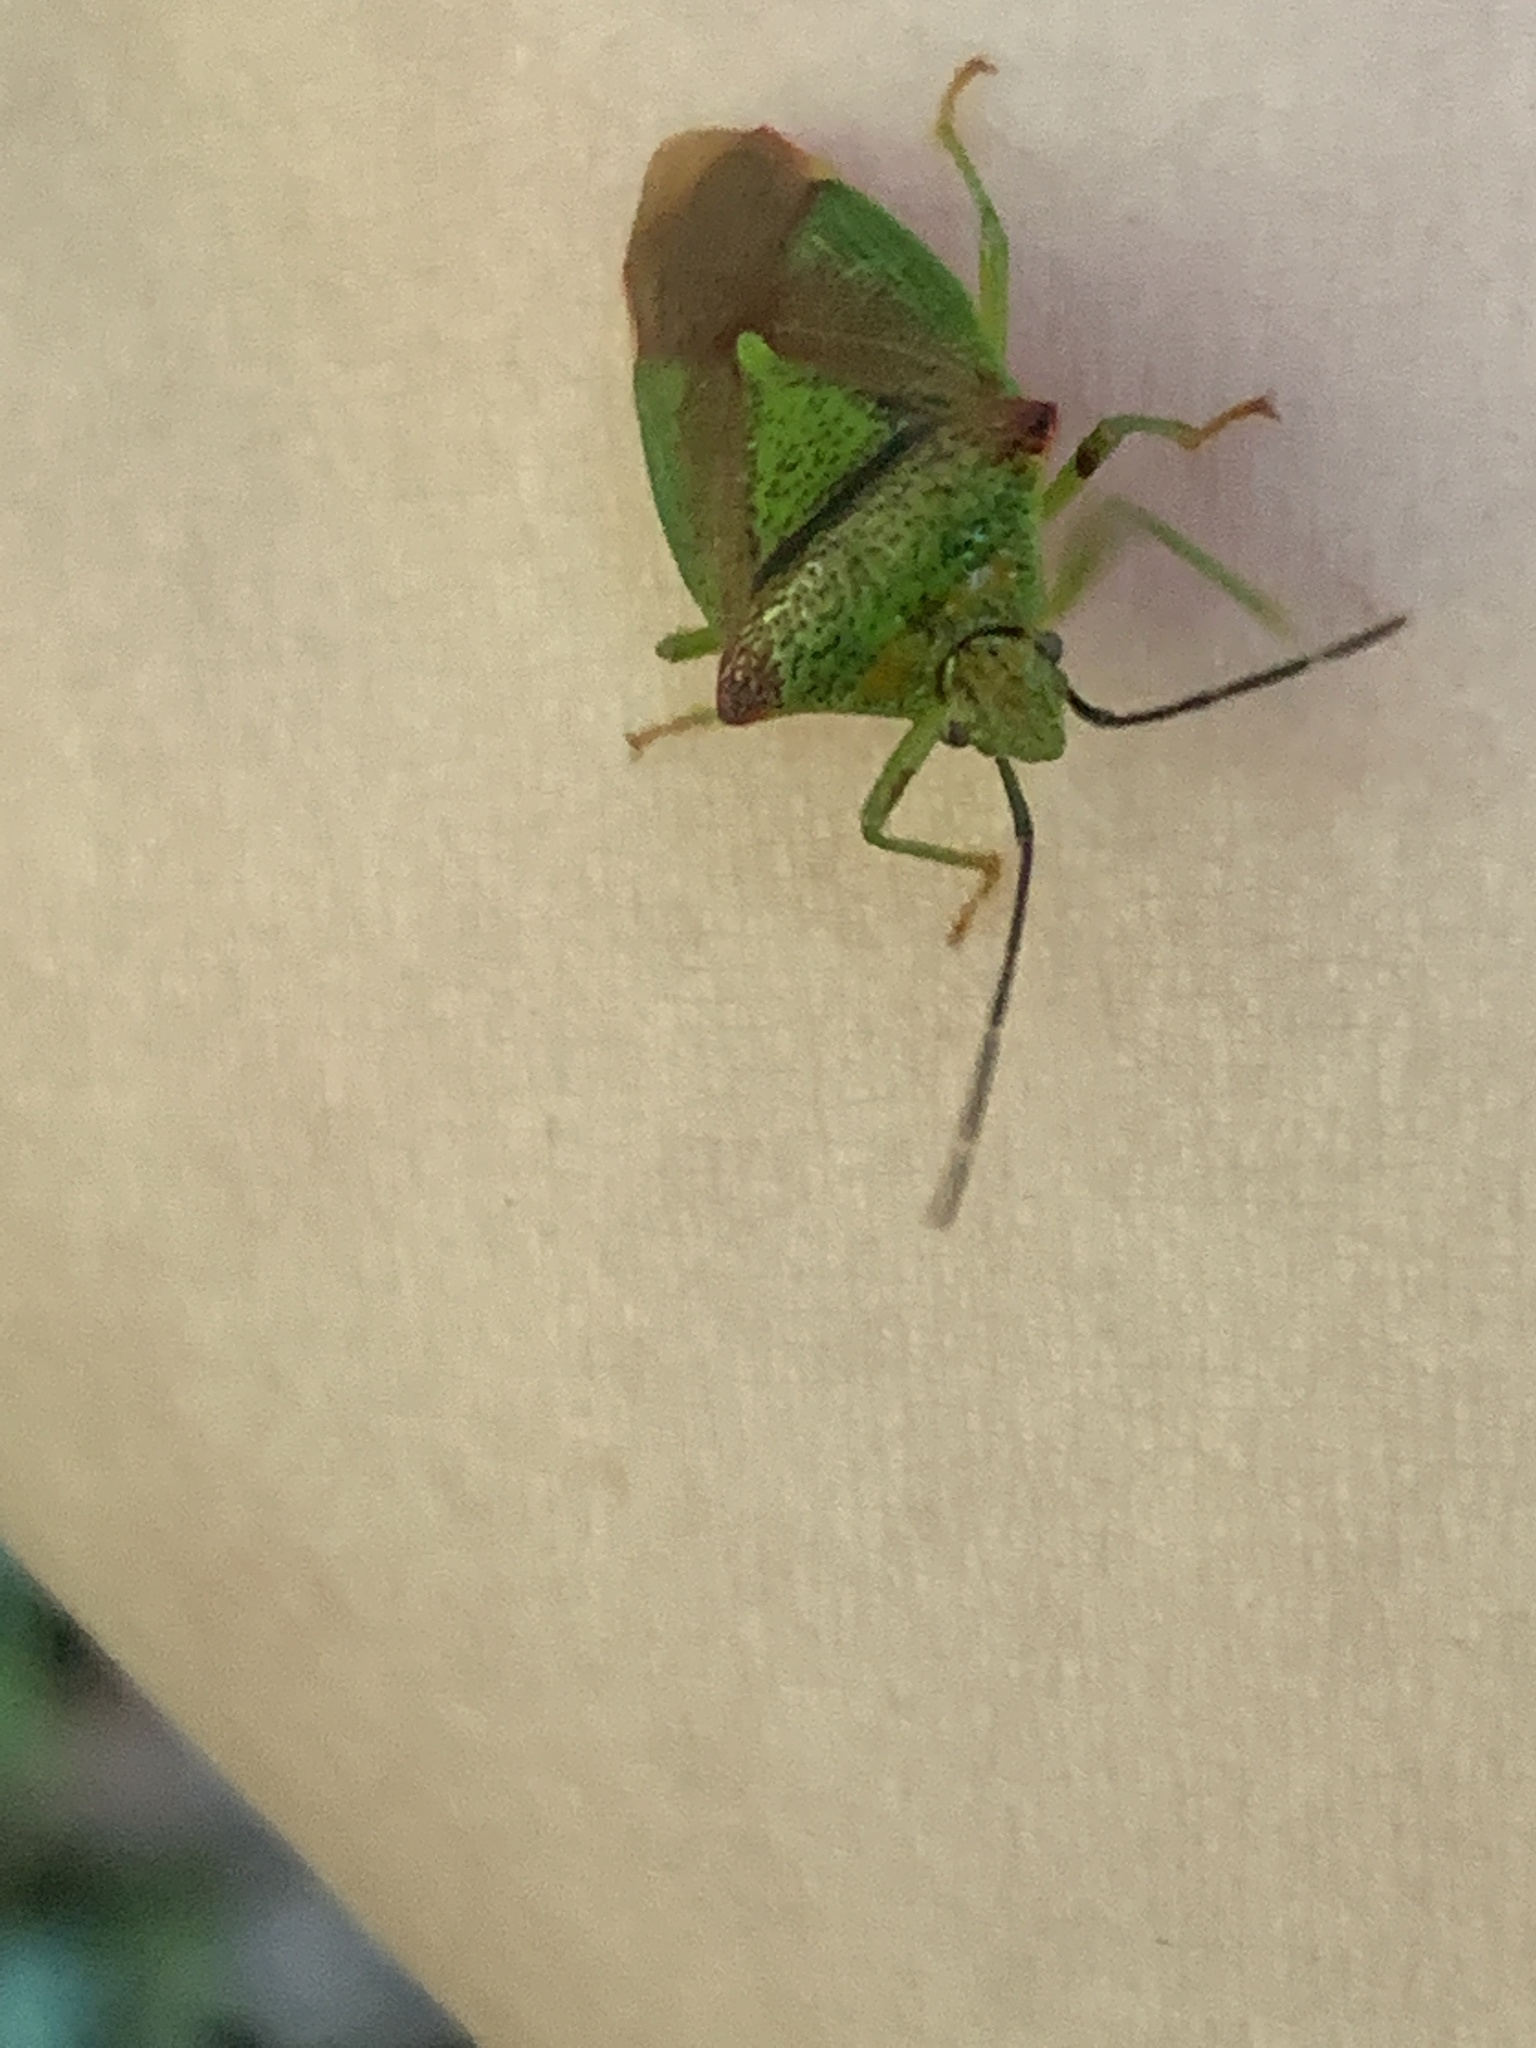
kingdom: Animalia
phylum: Arthropoda
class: Insecta
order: Hemiptera
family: Acanthosomatidae
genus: Acanthosoma
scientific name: Acanthosoma haemorrhoidale
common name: Hawthorn shieldbug
